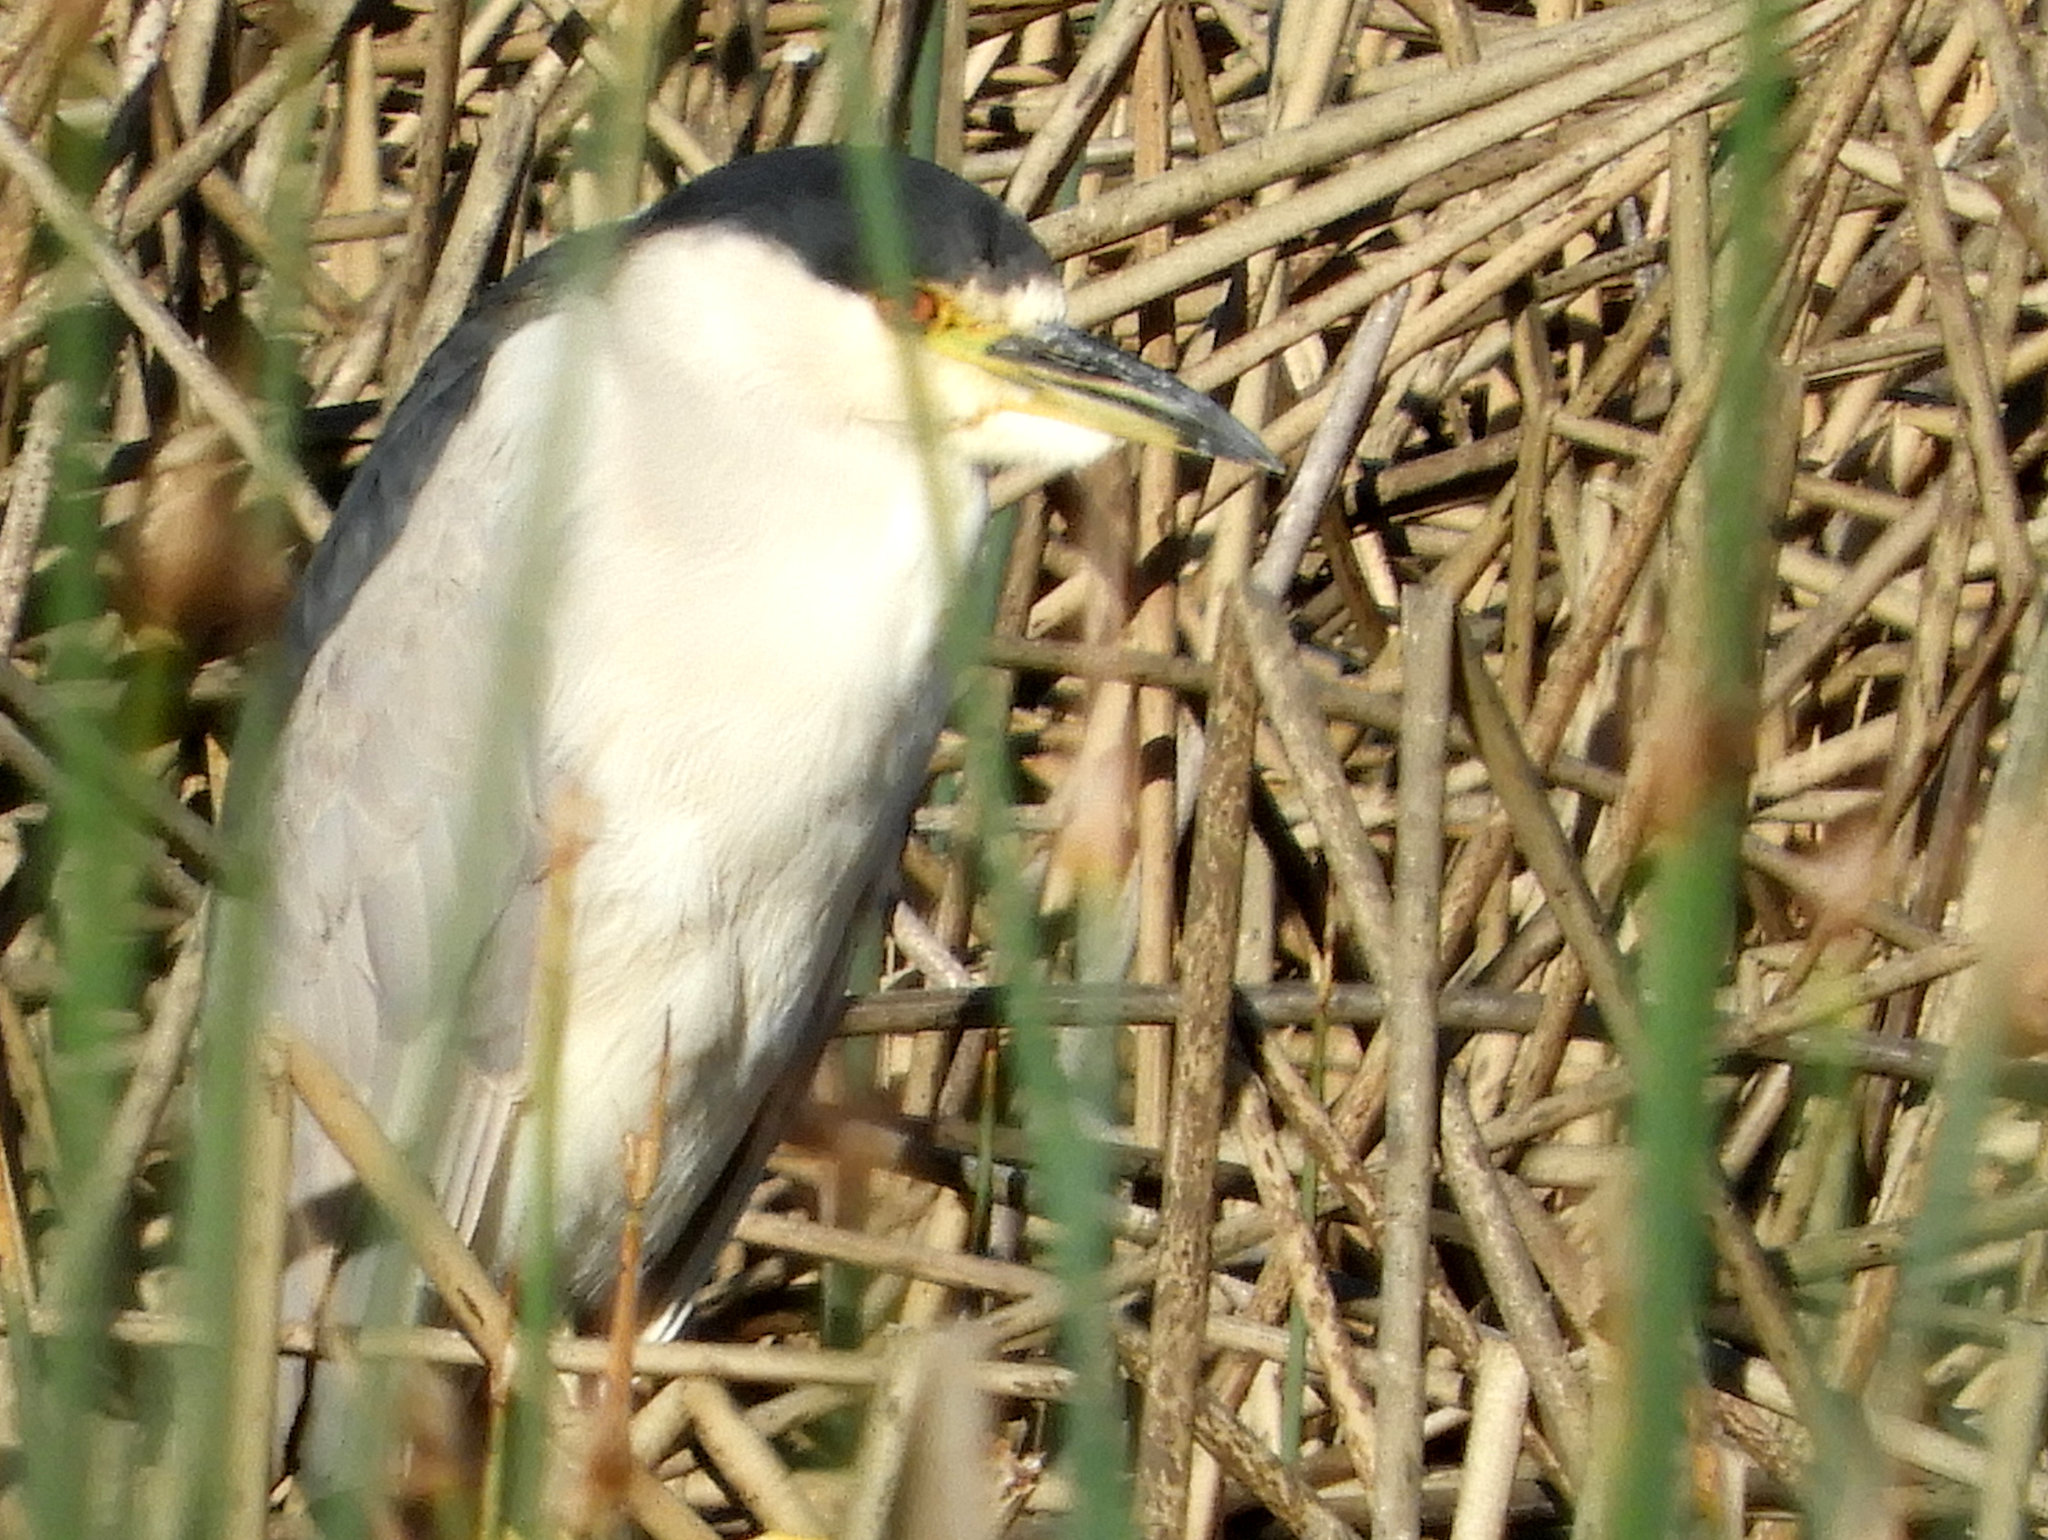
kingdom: Animalia
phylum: Chordata
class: Aves
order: Pelecaniformes
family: Ardeidae
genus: Nycticorax
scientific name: Nycticorax nycticorax
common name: Black-crowned night heron
